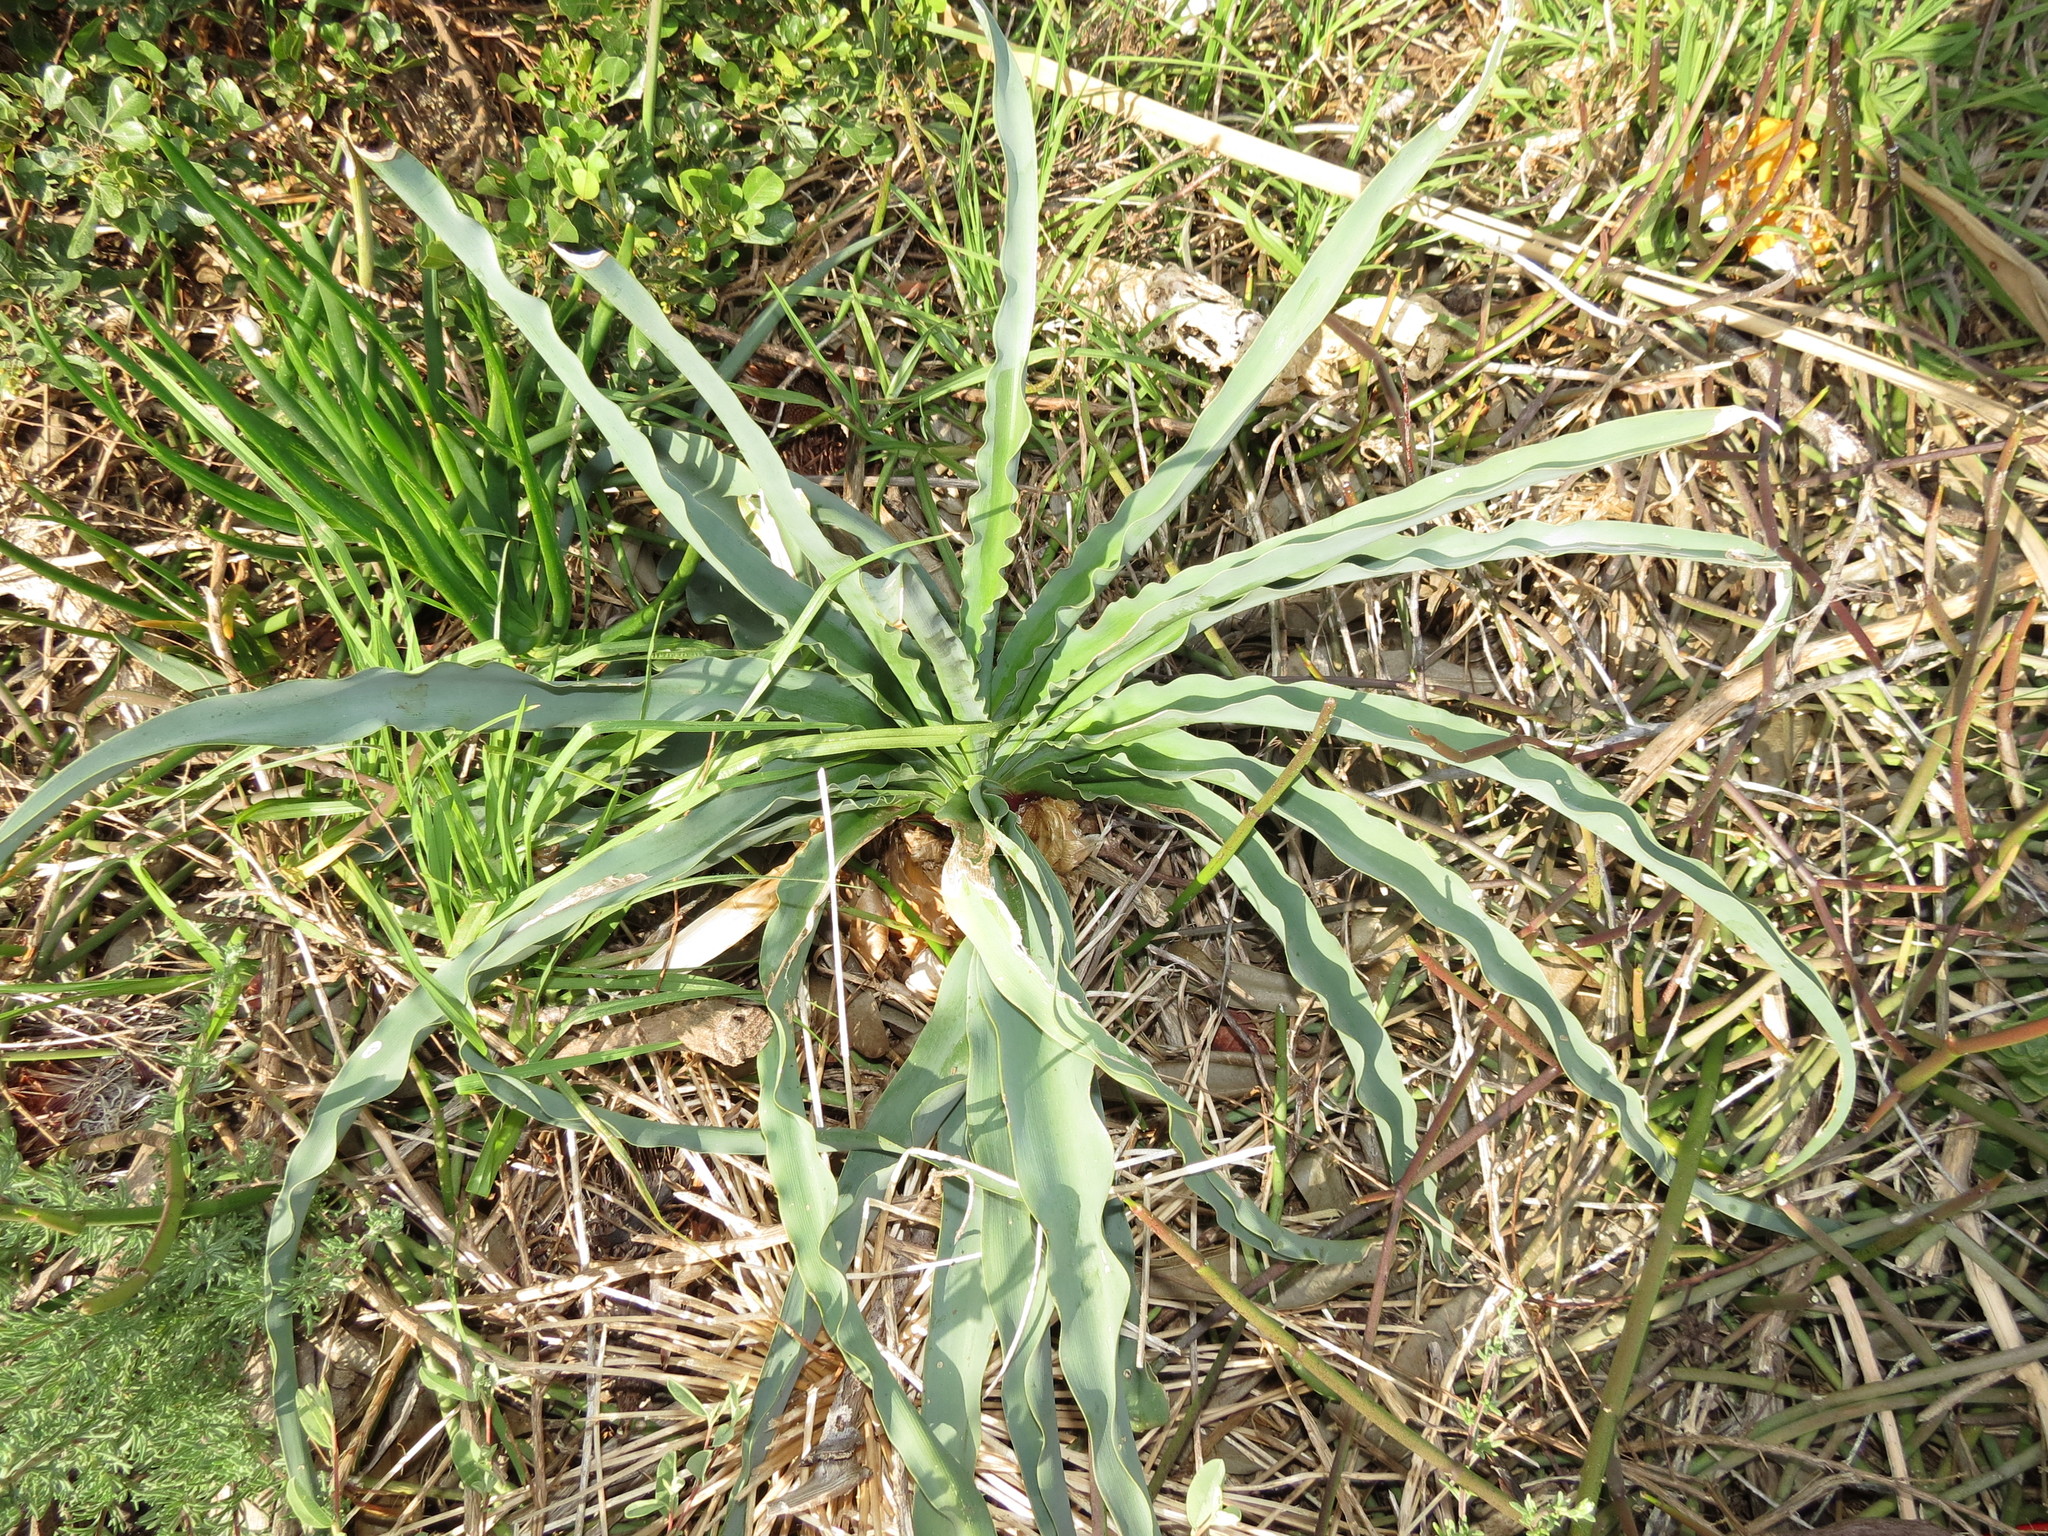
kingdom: Plantae
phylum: Tracheophyta
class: Liliopsida
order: Asparagales
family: Amaryllidaceae
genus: Boophone
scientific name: Boophone disticha
